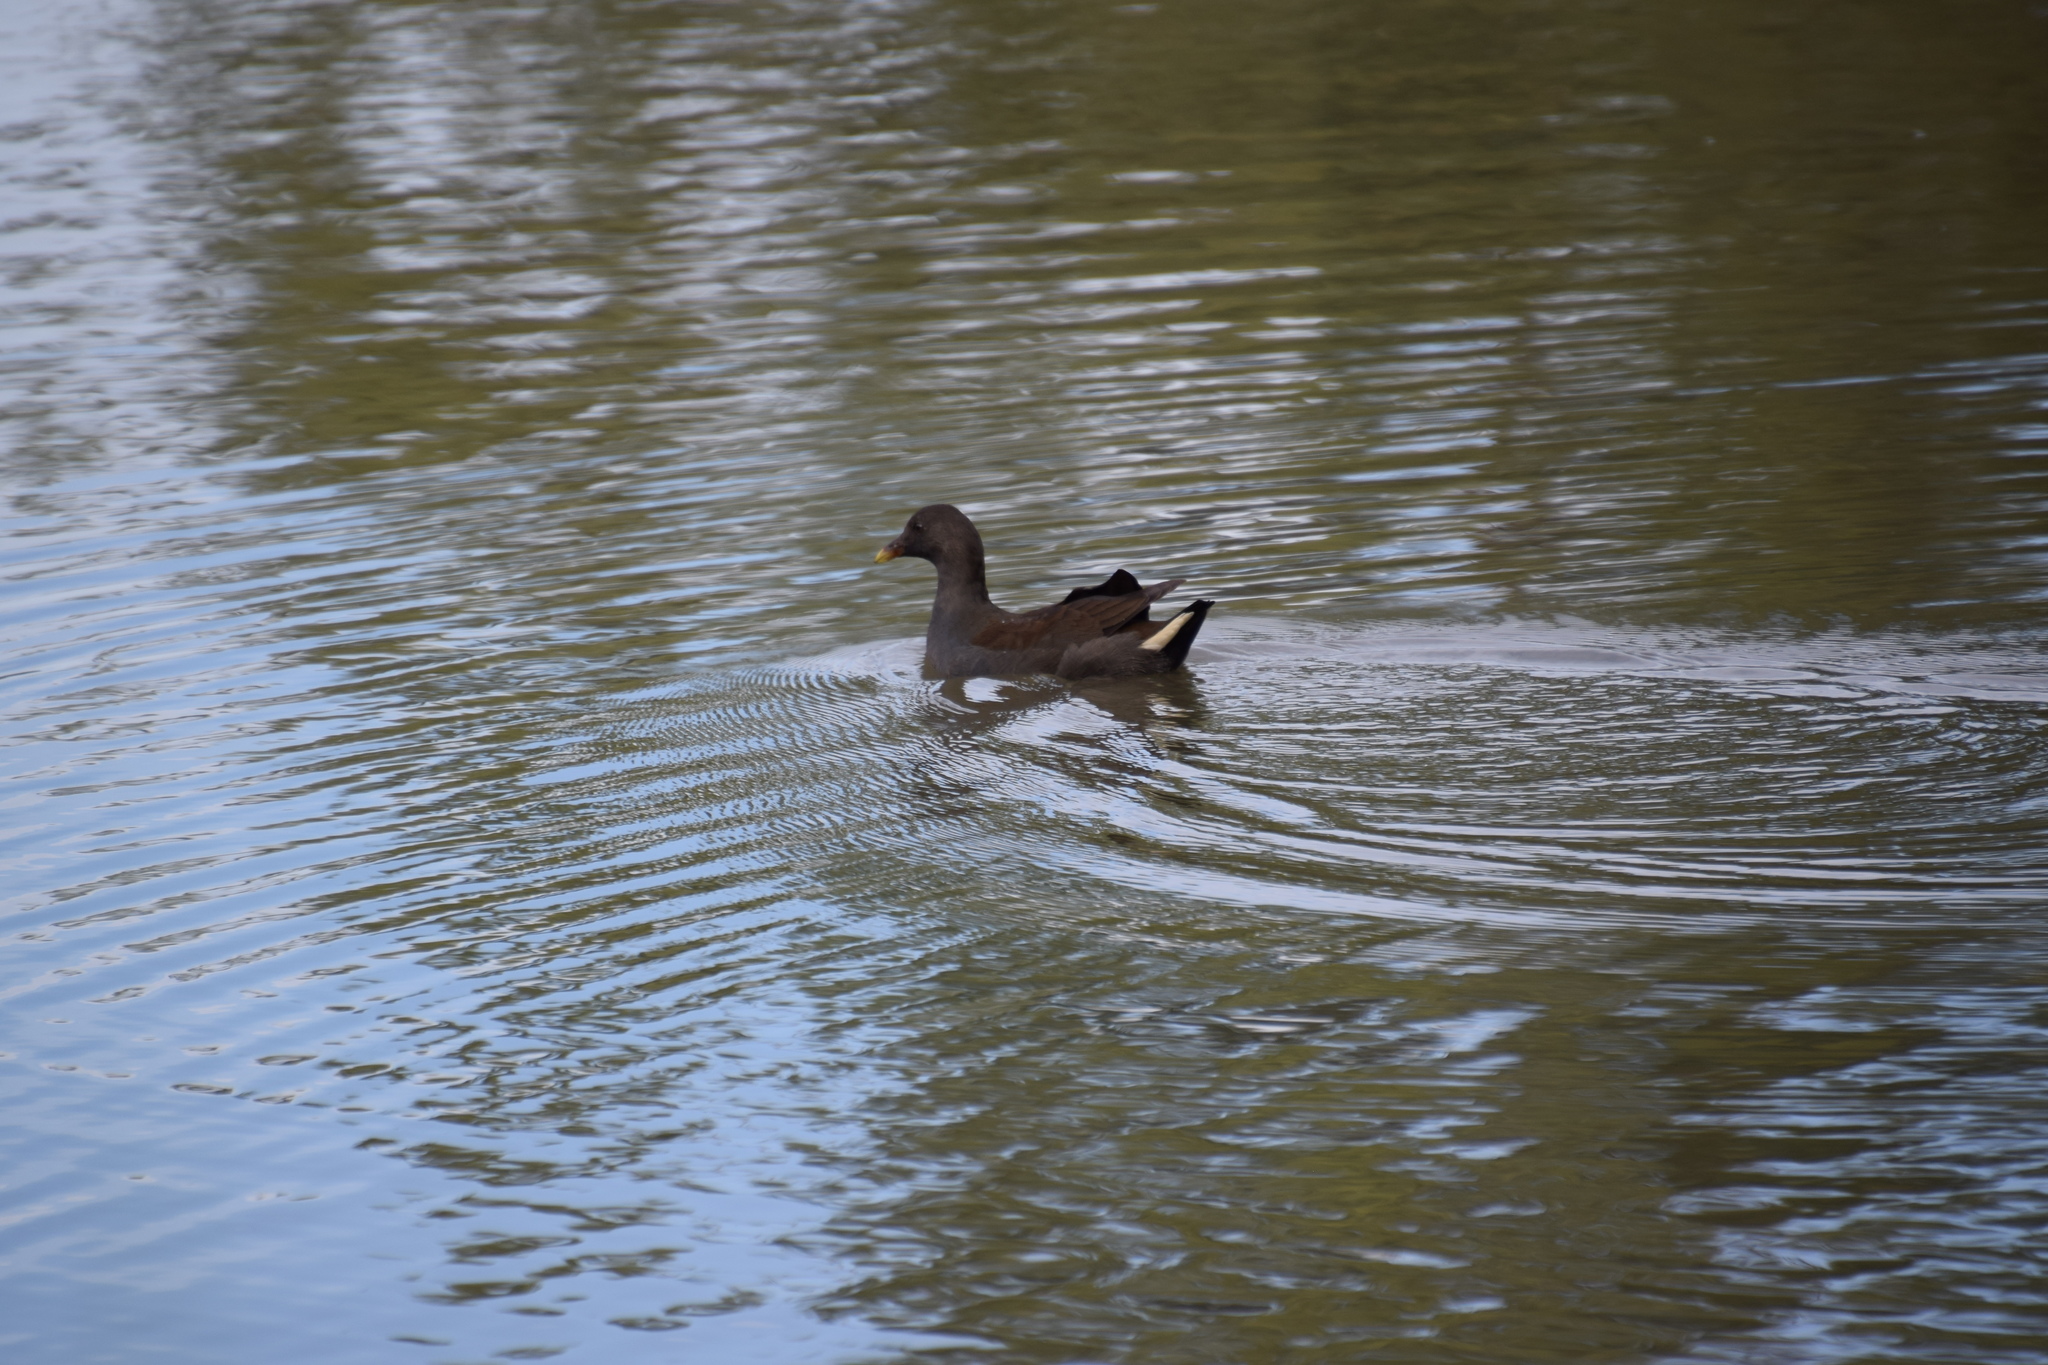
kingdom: Animalia
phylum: Chordata
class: Aves
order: Gruiformes
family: Rallidae
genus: Gallinula
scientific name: Gallinula tenebrosa
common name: Dusky moorhen
